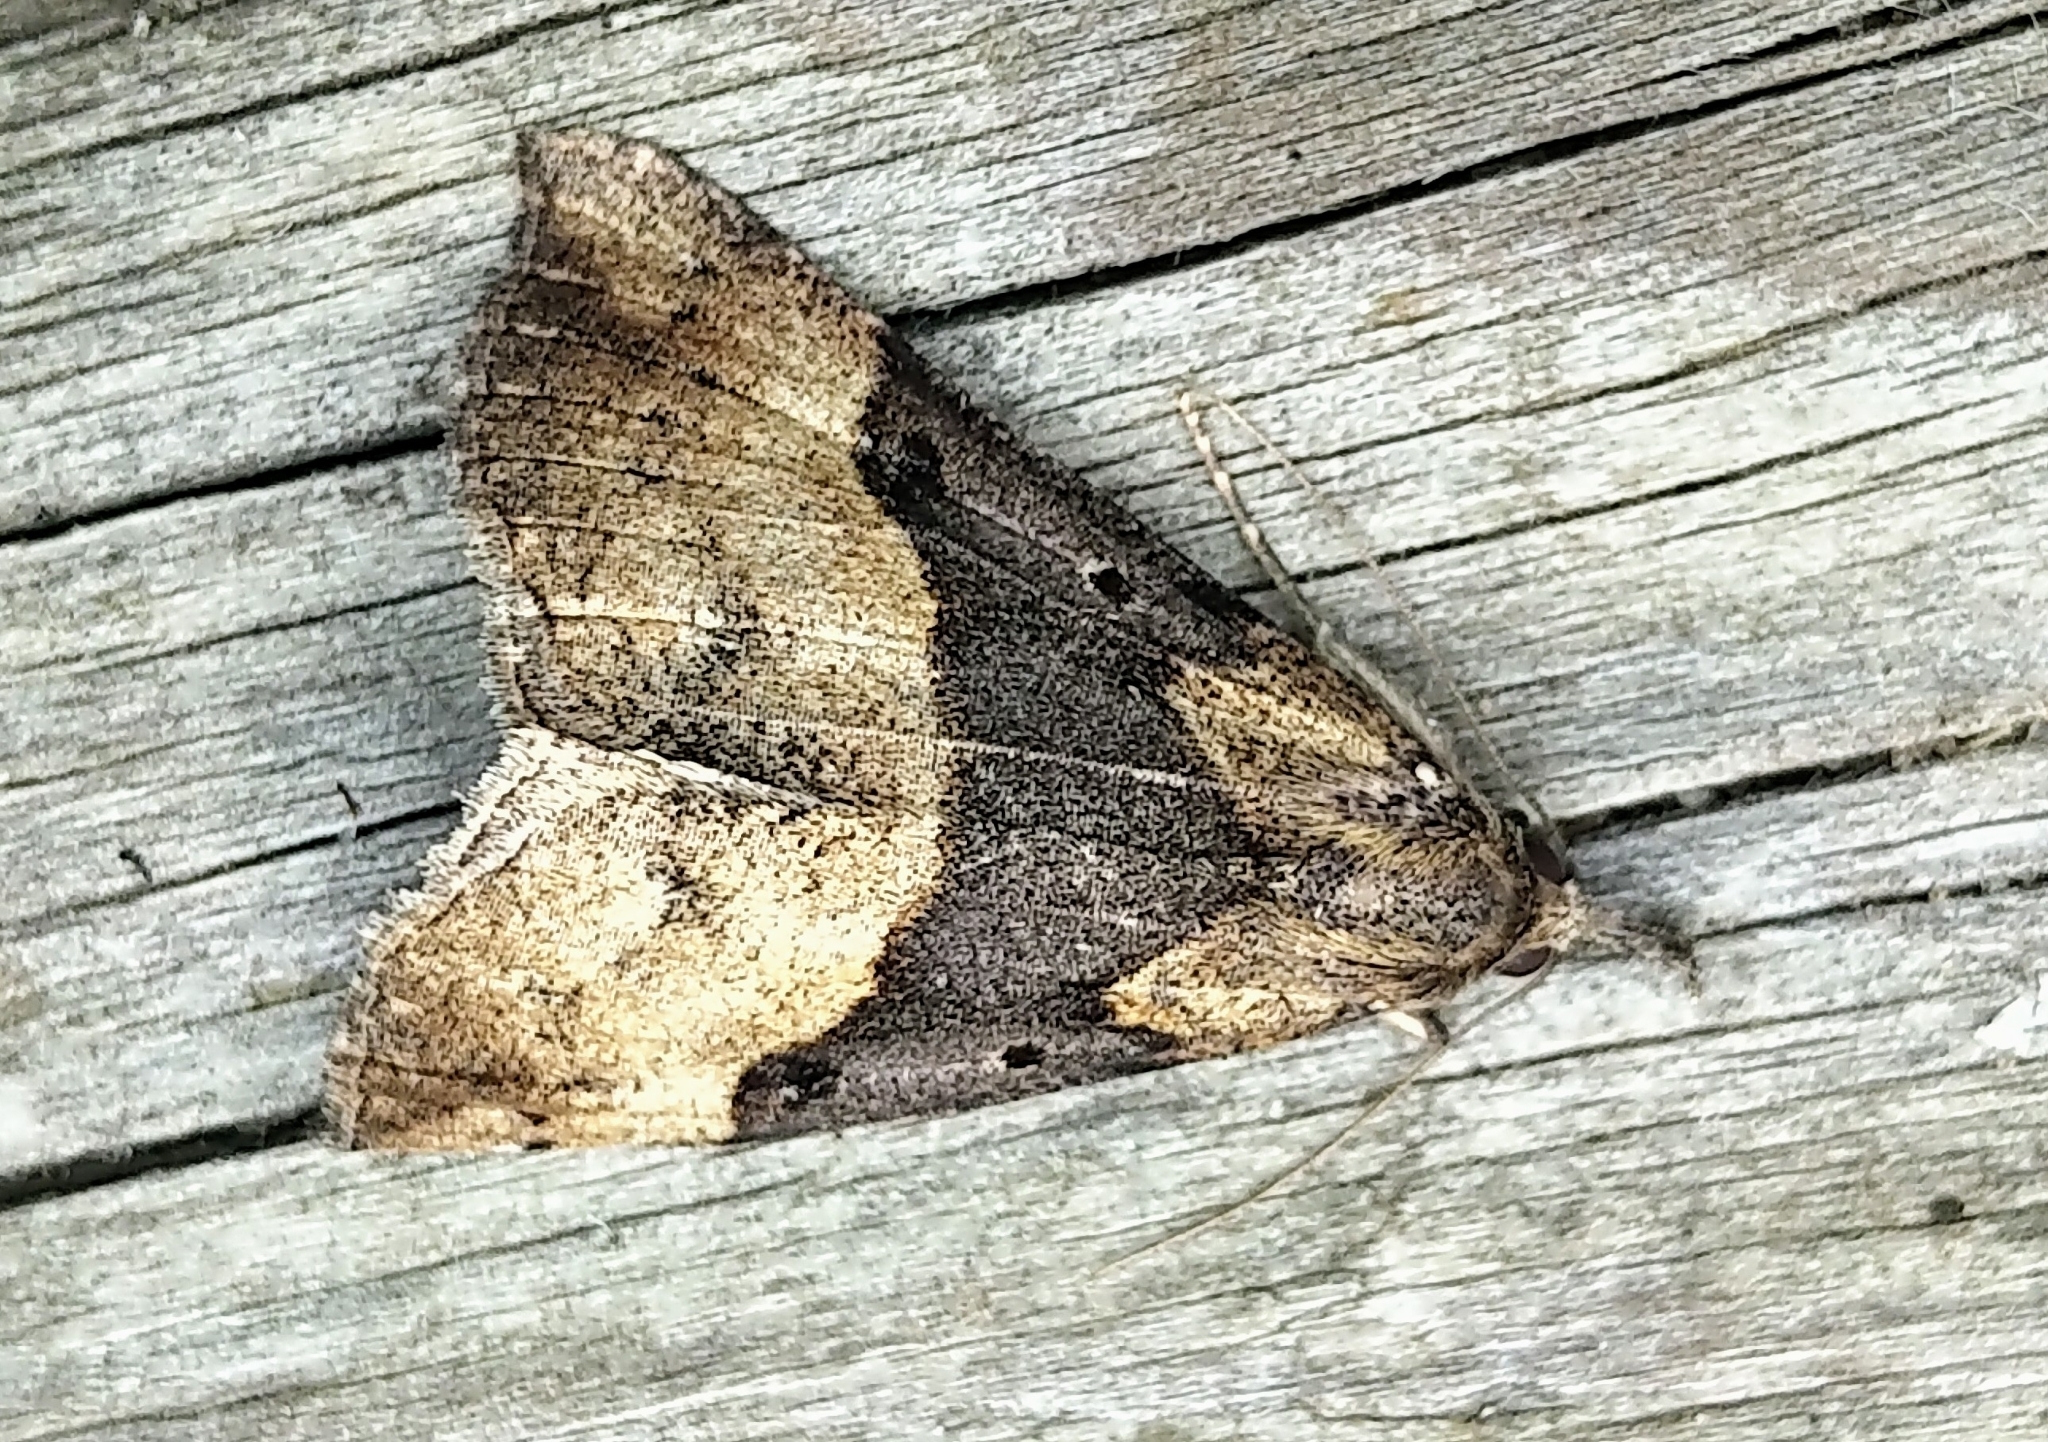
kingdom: Animalia
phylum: Arthropoda
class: Insecta
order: Lepidoptera
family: Erebidae
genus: Hypena
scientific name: Hypena edictalis
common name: Large snout
